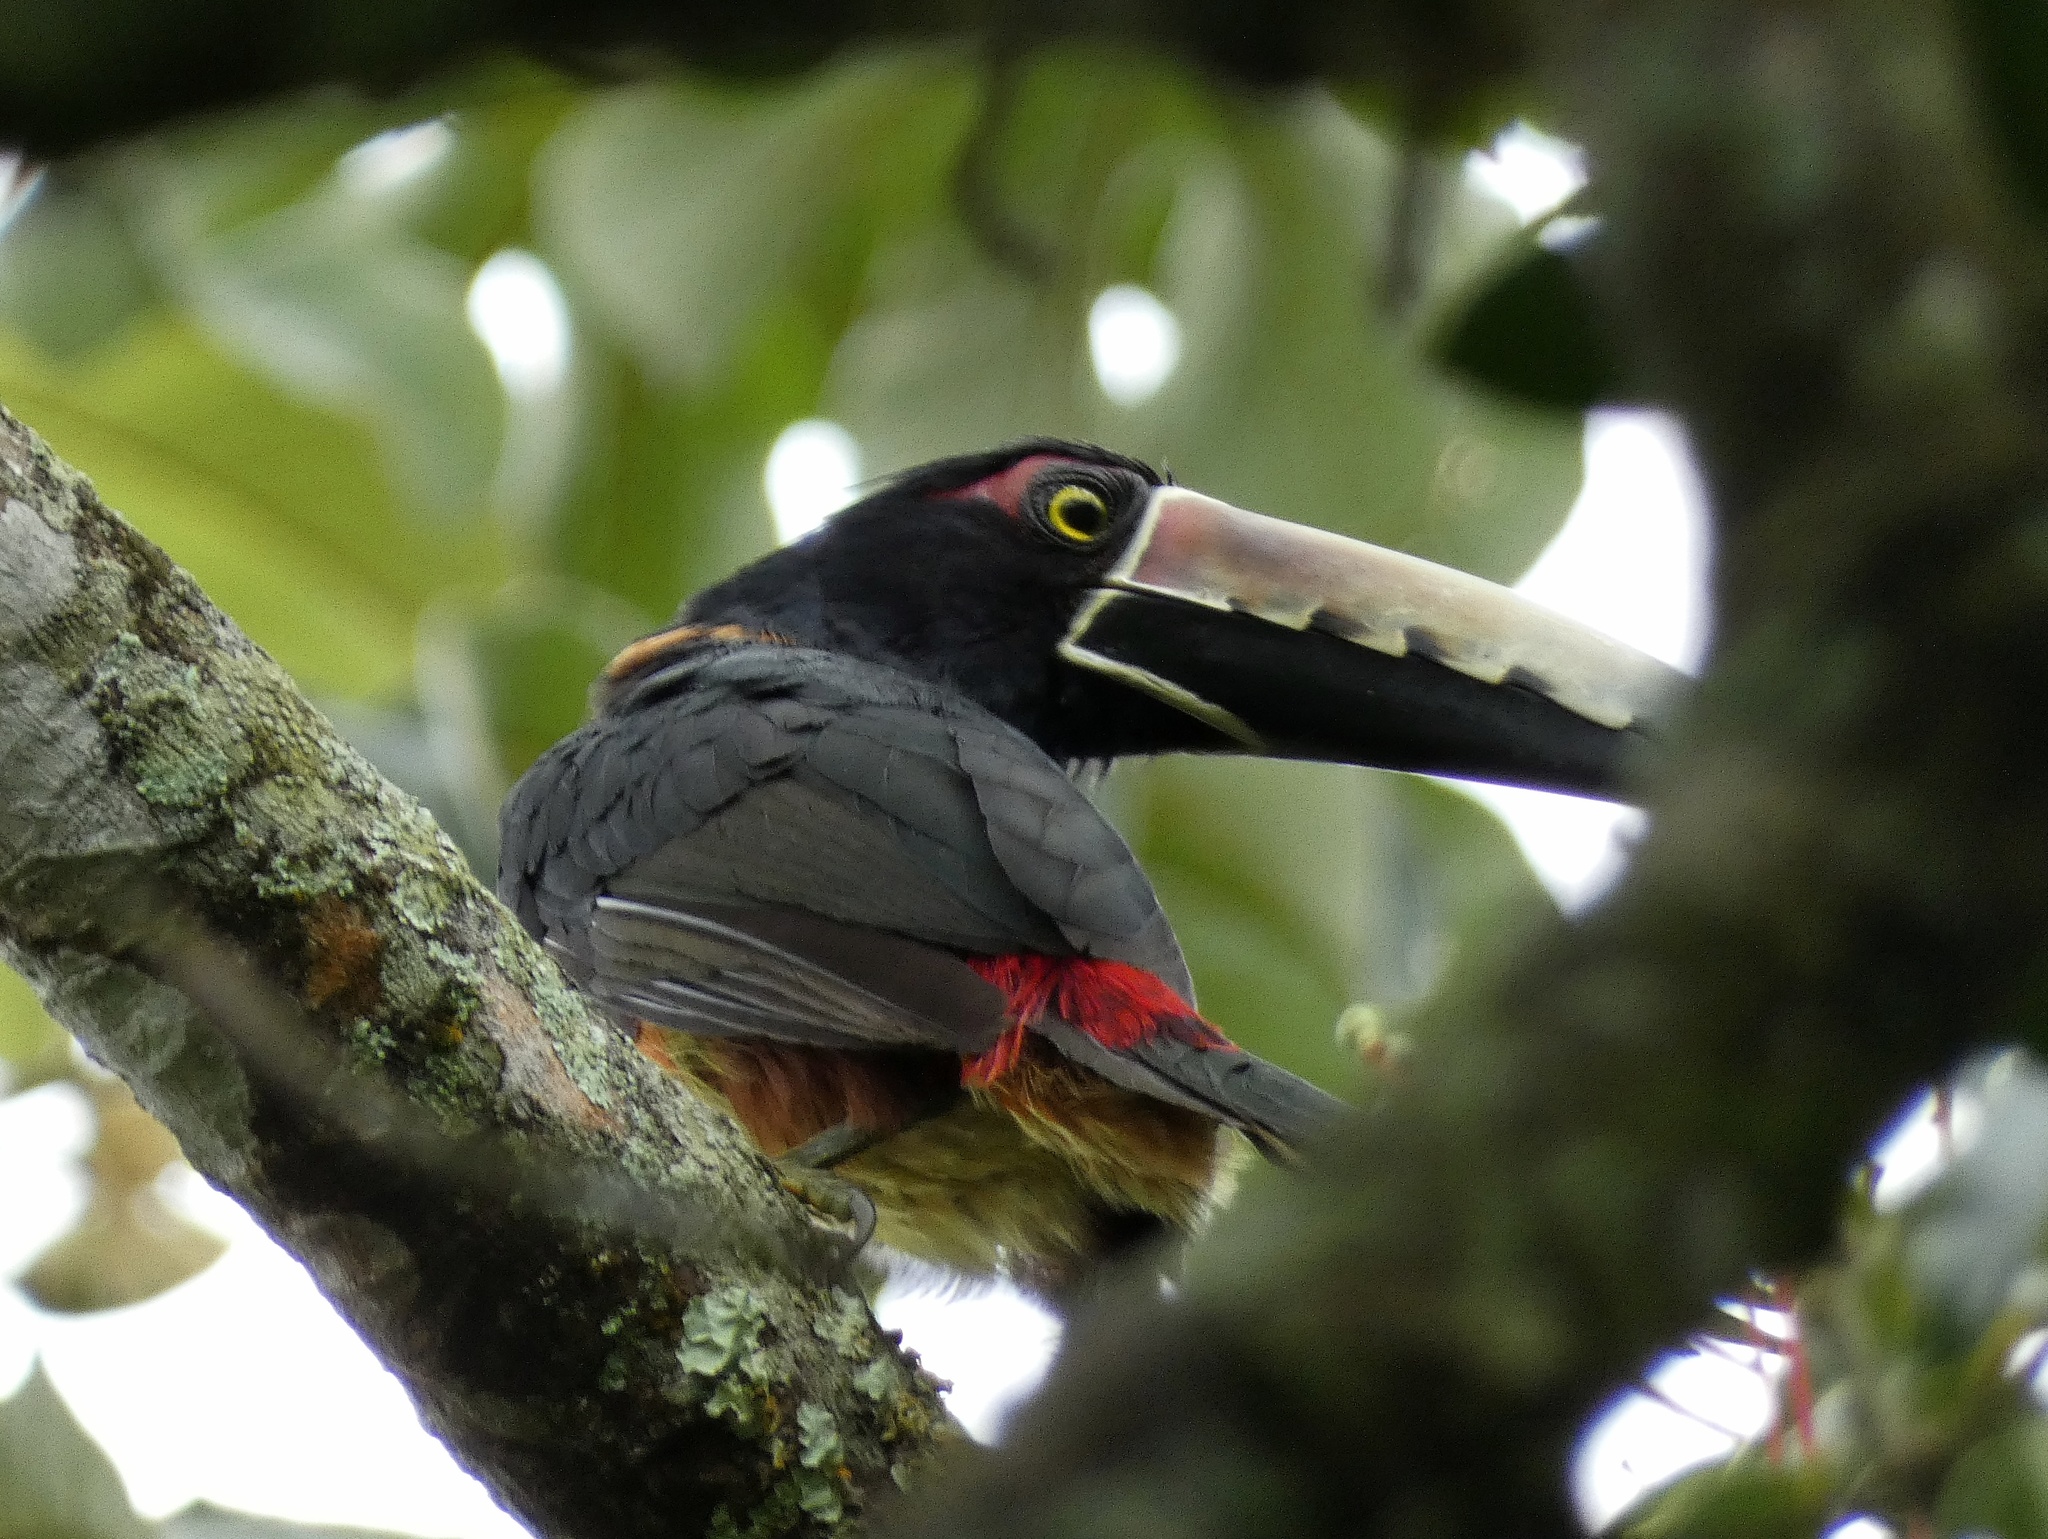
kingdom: Animalia
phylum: Chordata
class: Aves
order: Piciformes
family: Ramphastidae
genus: Pteroglossus
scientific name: Pteroglossus torquatus
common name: Collared aracari
